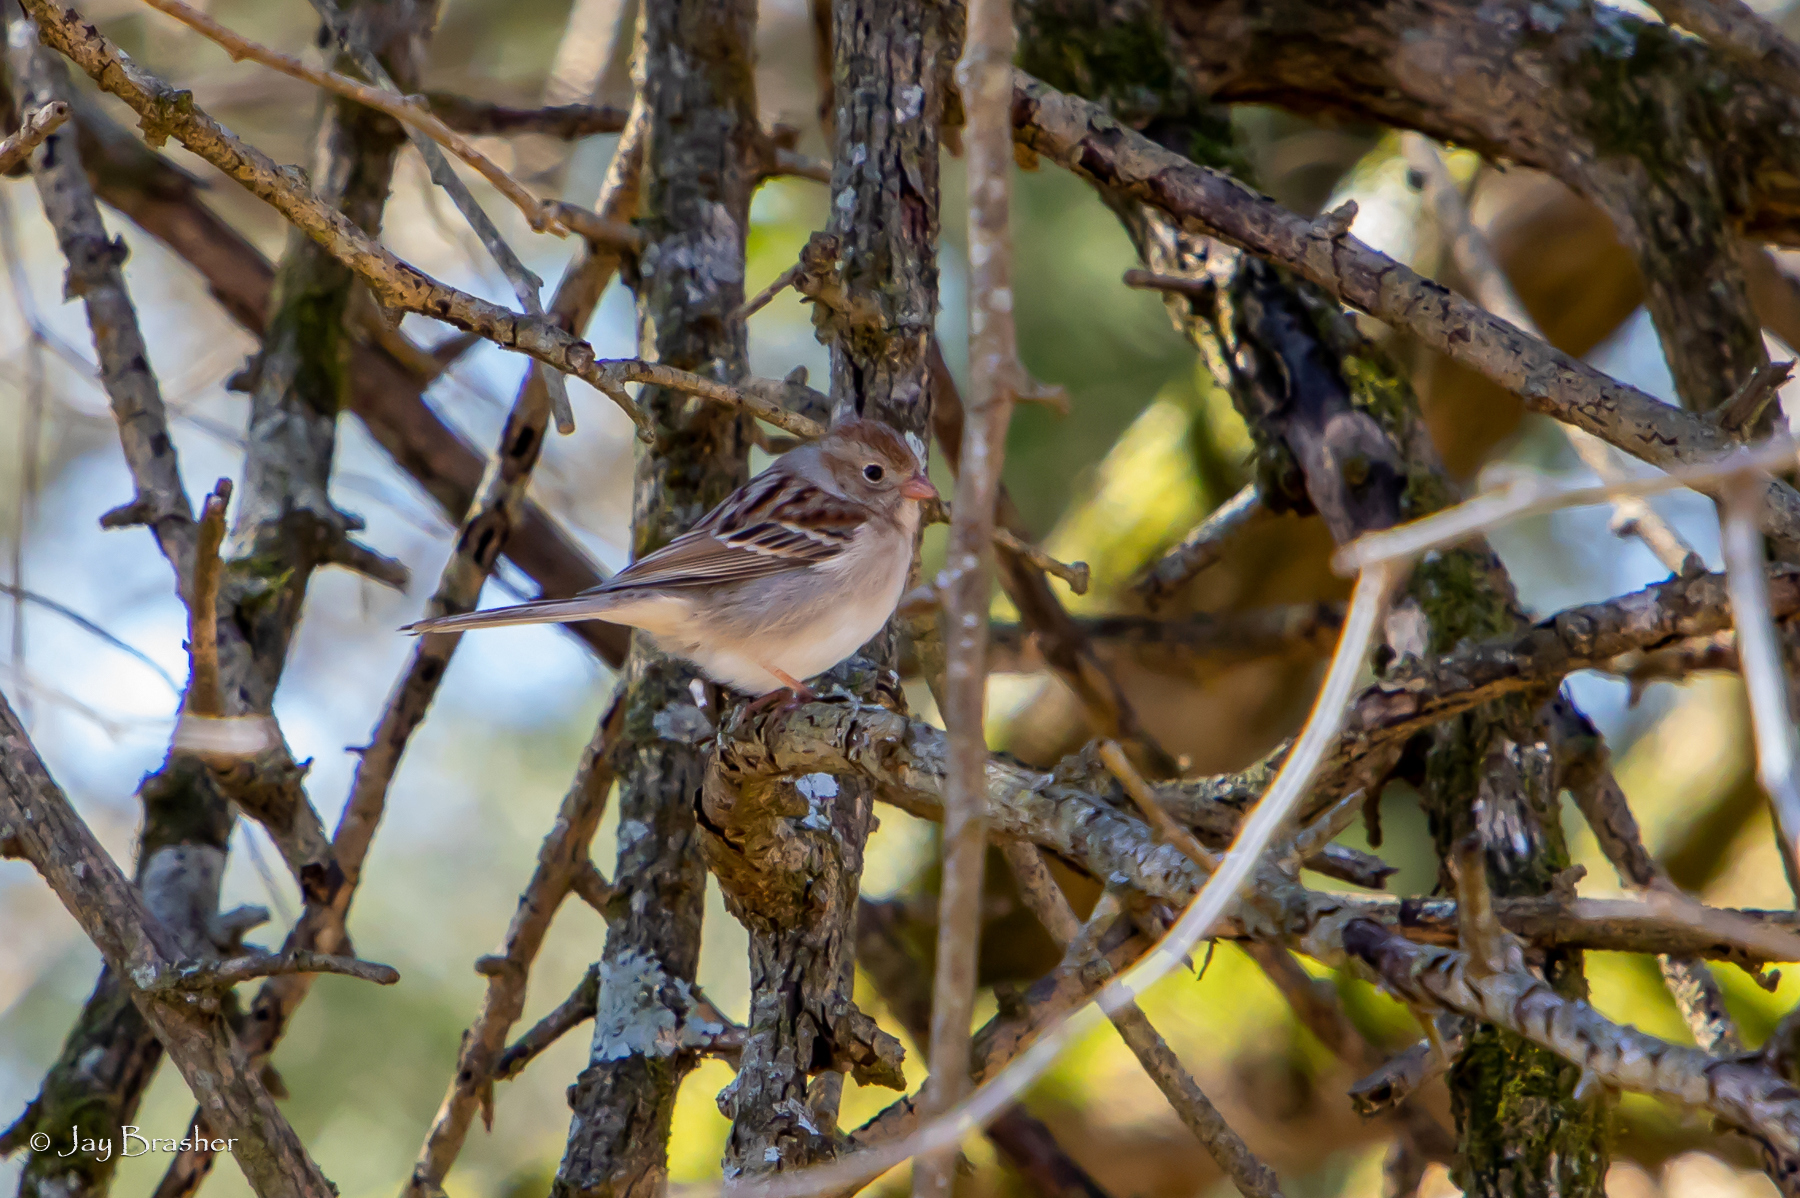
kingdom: Animalia
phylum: Chordata
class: Aves
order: Passeriformes
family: Passerellidae
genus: Spizella
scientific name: Spizella pusilla
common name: Field sparrow
